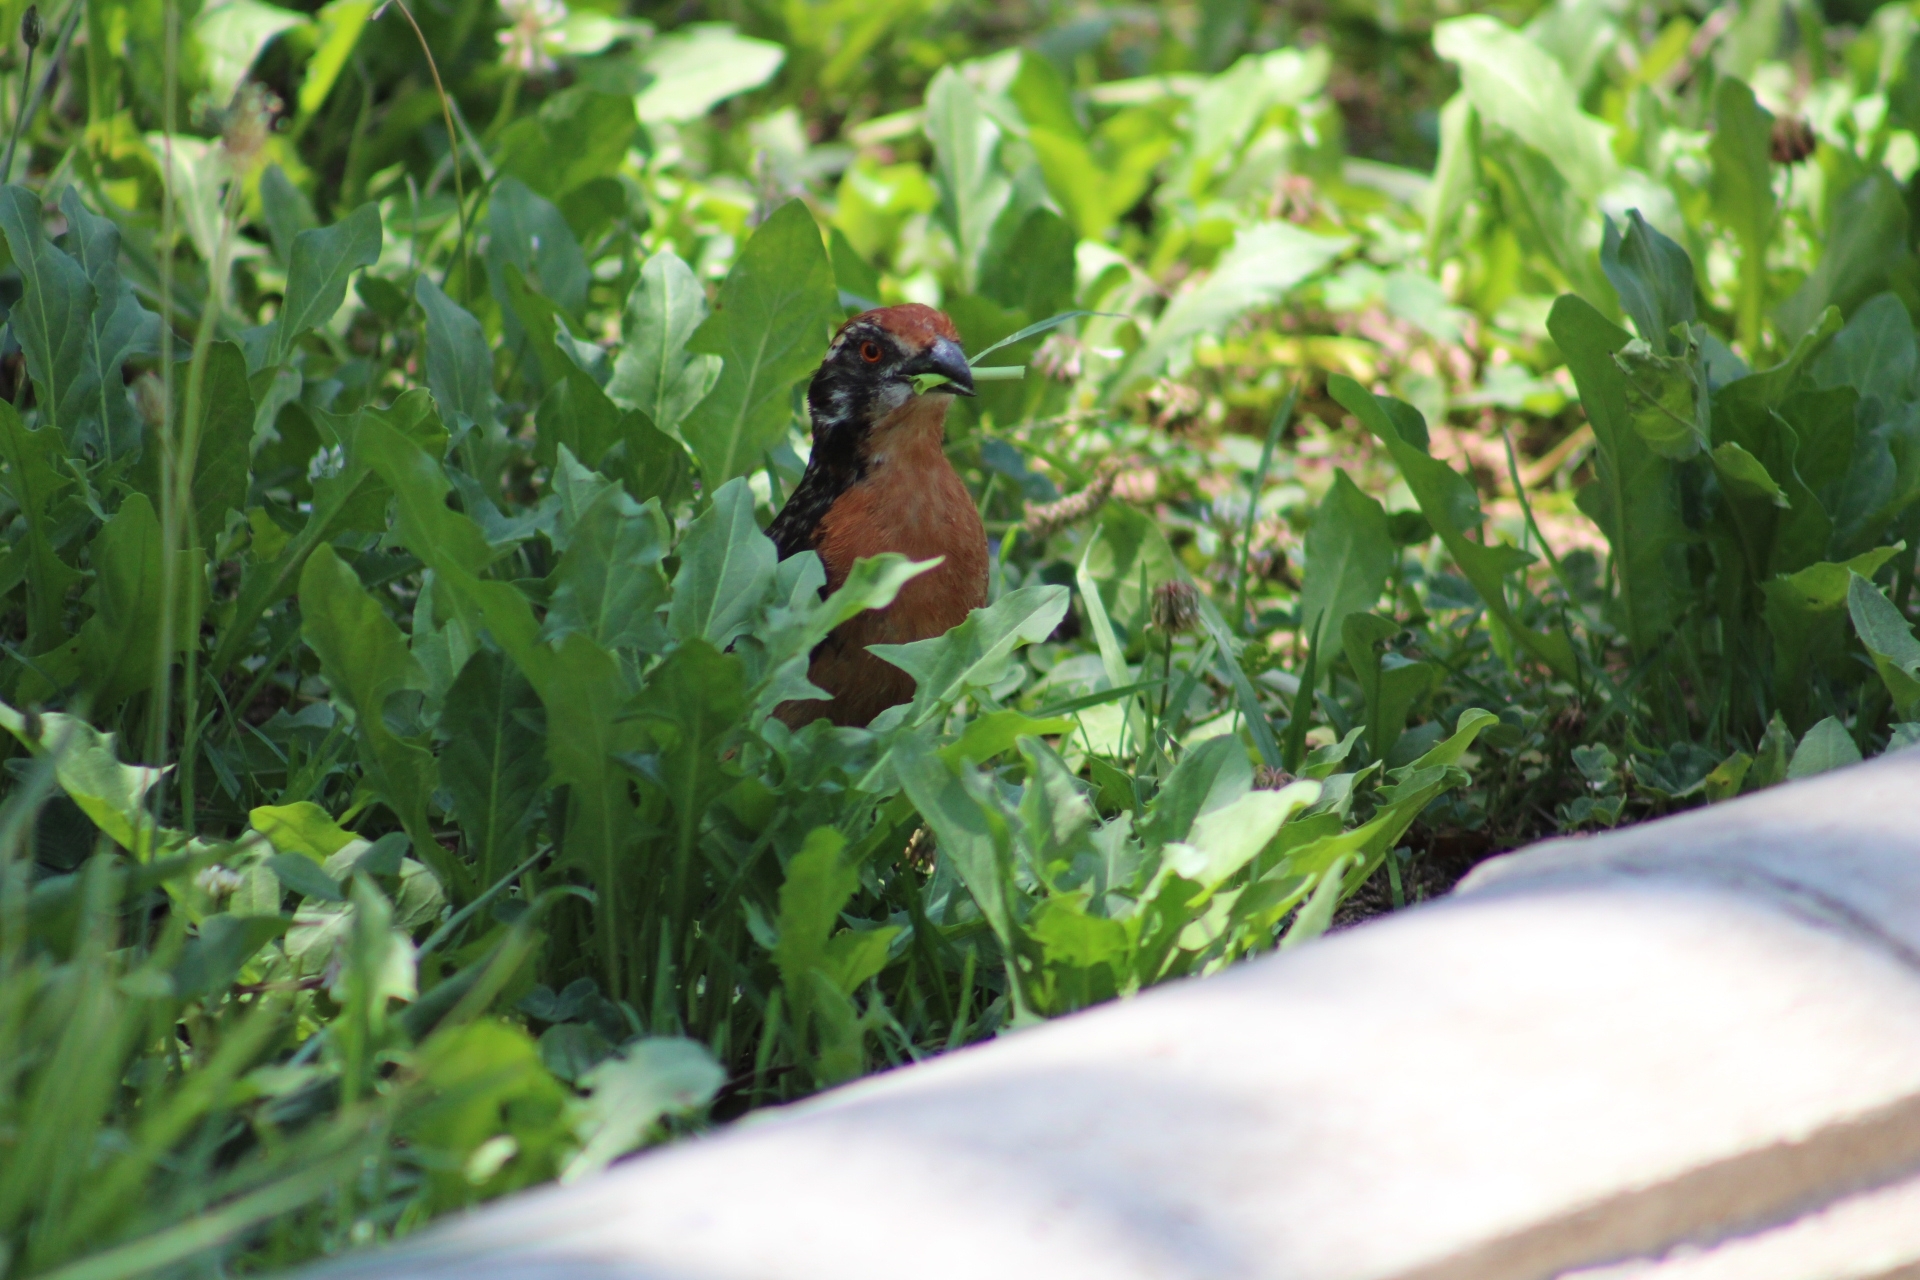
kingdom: Animalia
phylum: Chordata
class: Aves
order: Passeriformes
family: Cotingidae
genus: Phytotoma
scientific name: Phytotoma rara
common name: Rufous-tailed plantcutter
